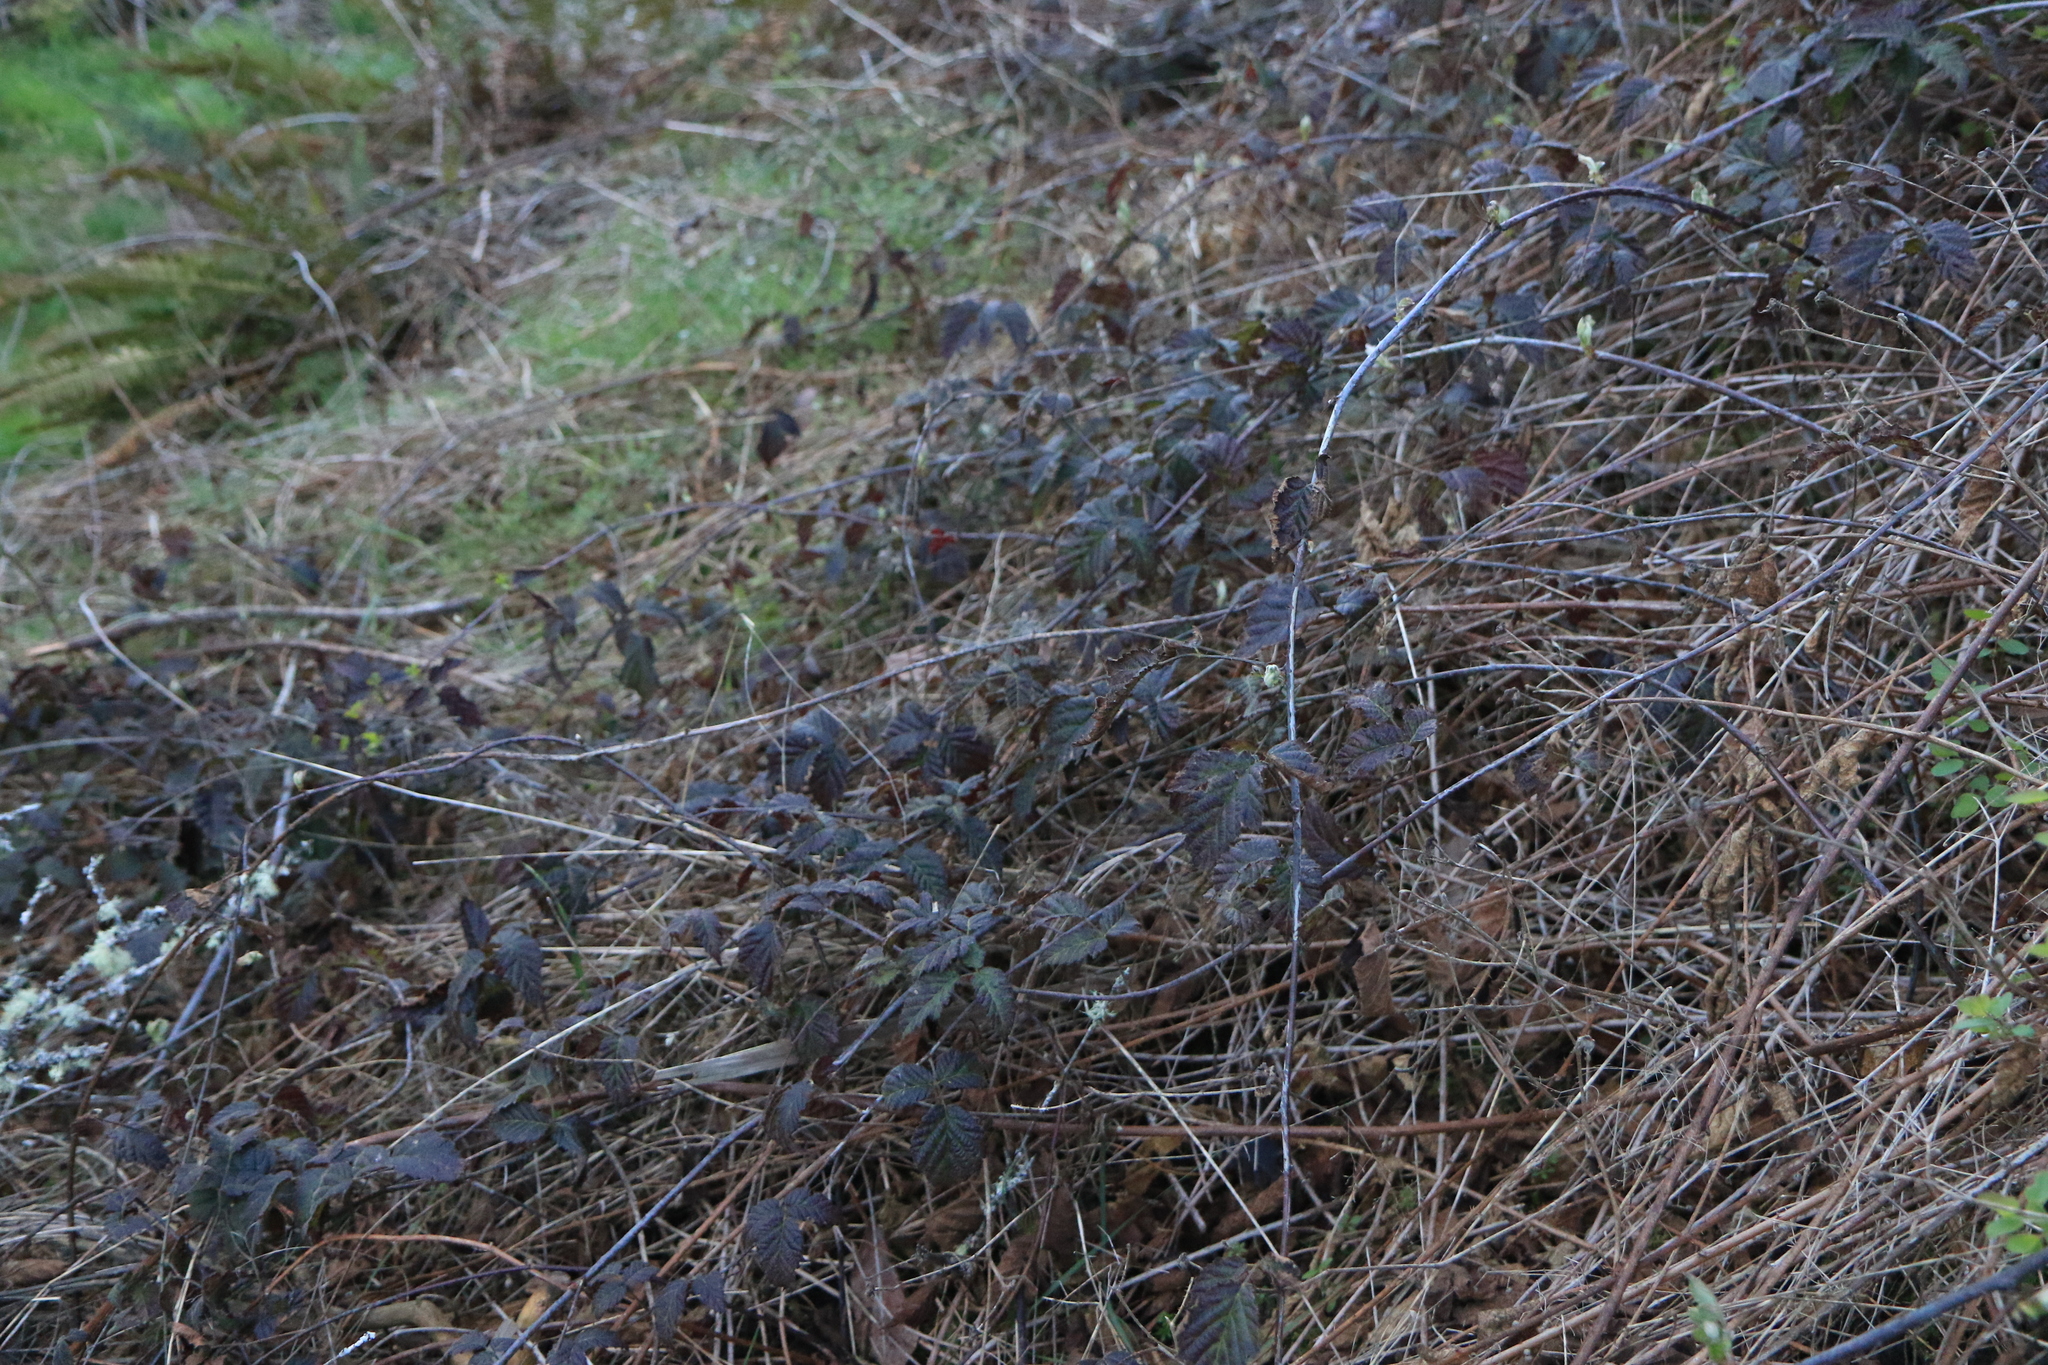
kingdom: Plantae
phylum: Tracheophyta
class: Magnoliopsida
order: Rosales
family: Rosaceae
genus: Rubus
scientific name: Rubus ursinus
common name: Pacific blackberry
